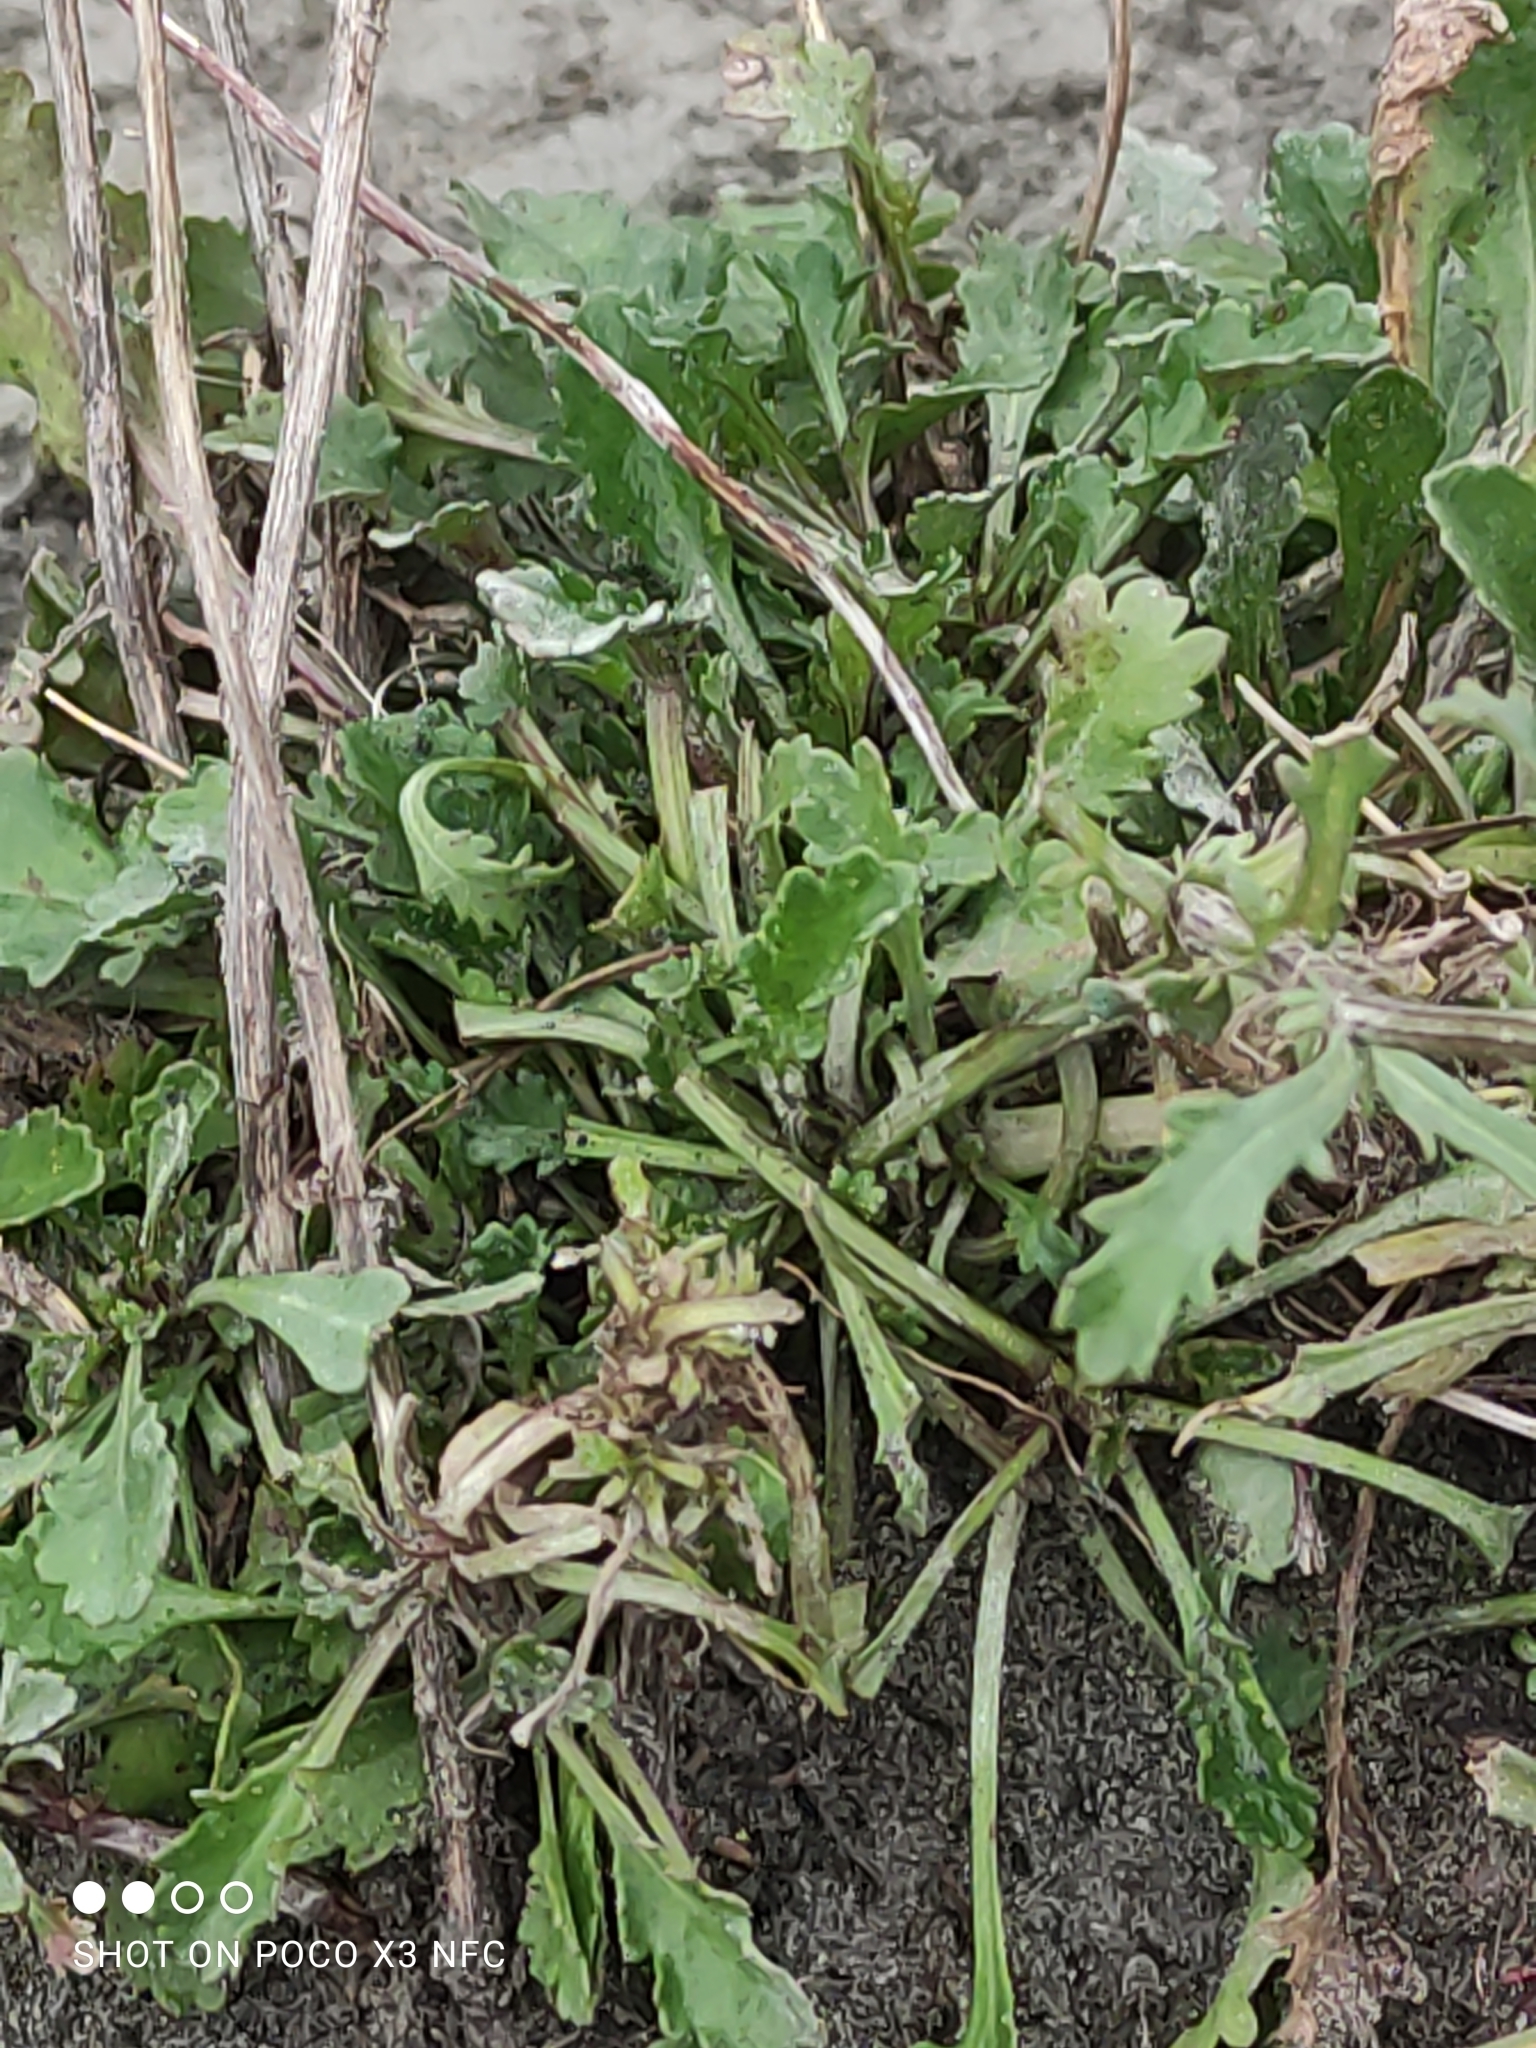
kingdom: Plantae
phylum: Tracheophyta
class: Magnoliopsida
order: Asterales
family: Asteraceae
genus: Leucanthemum
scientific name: Leucanthemum vulgare
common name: Oxeye daisy
